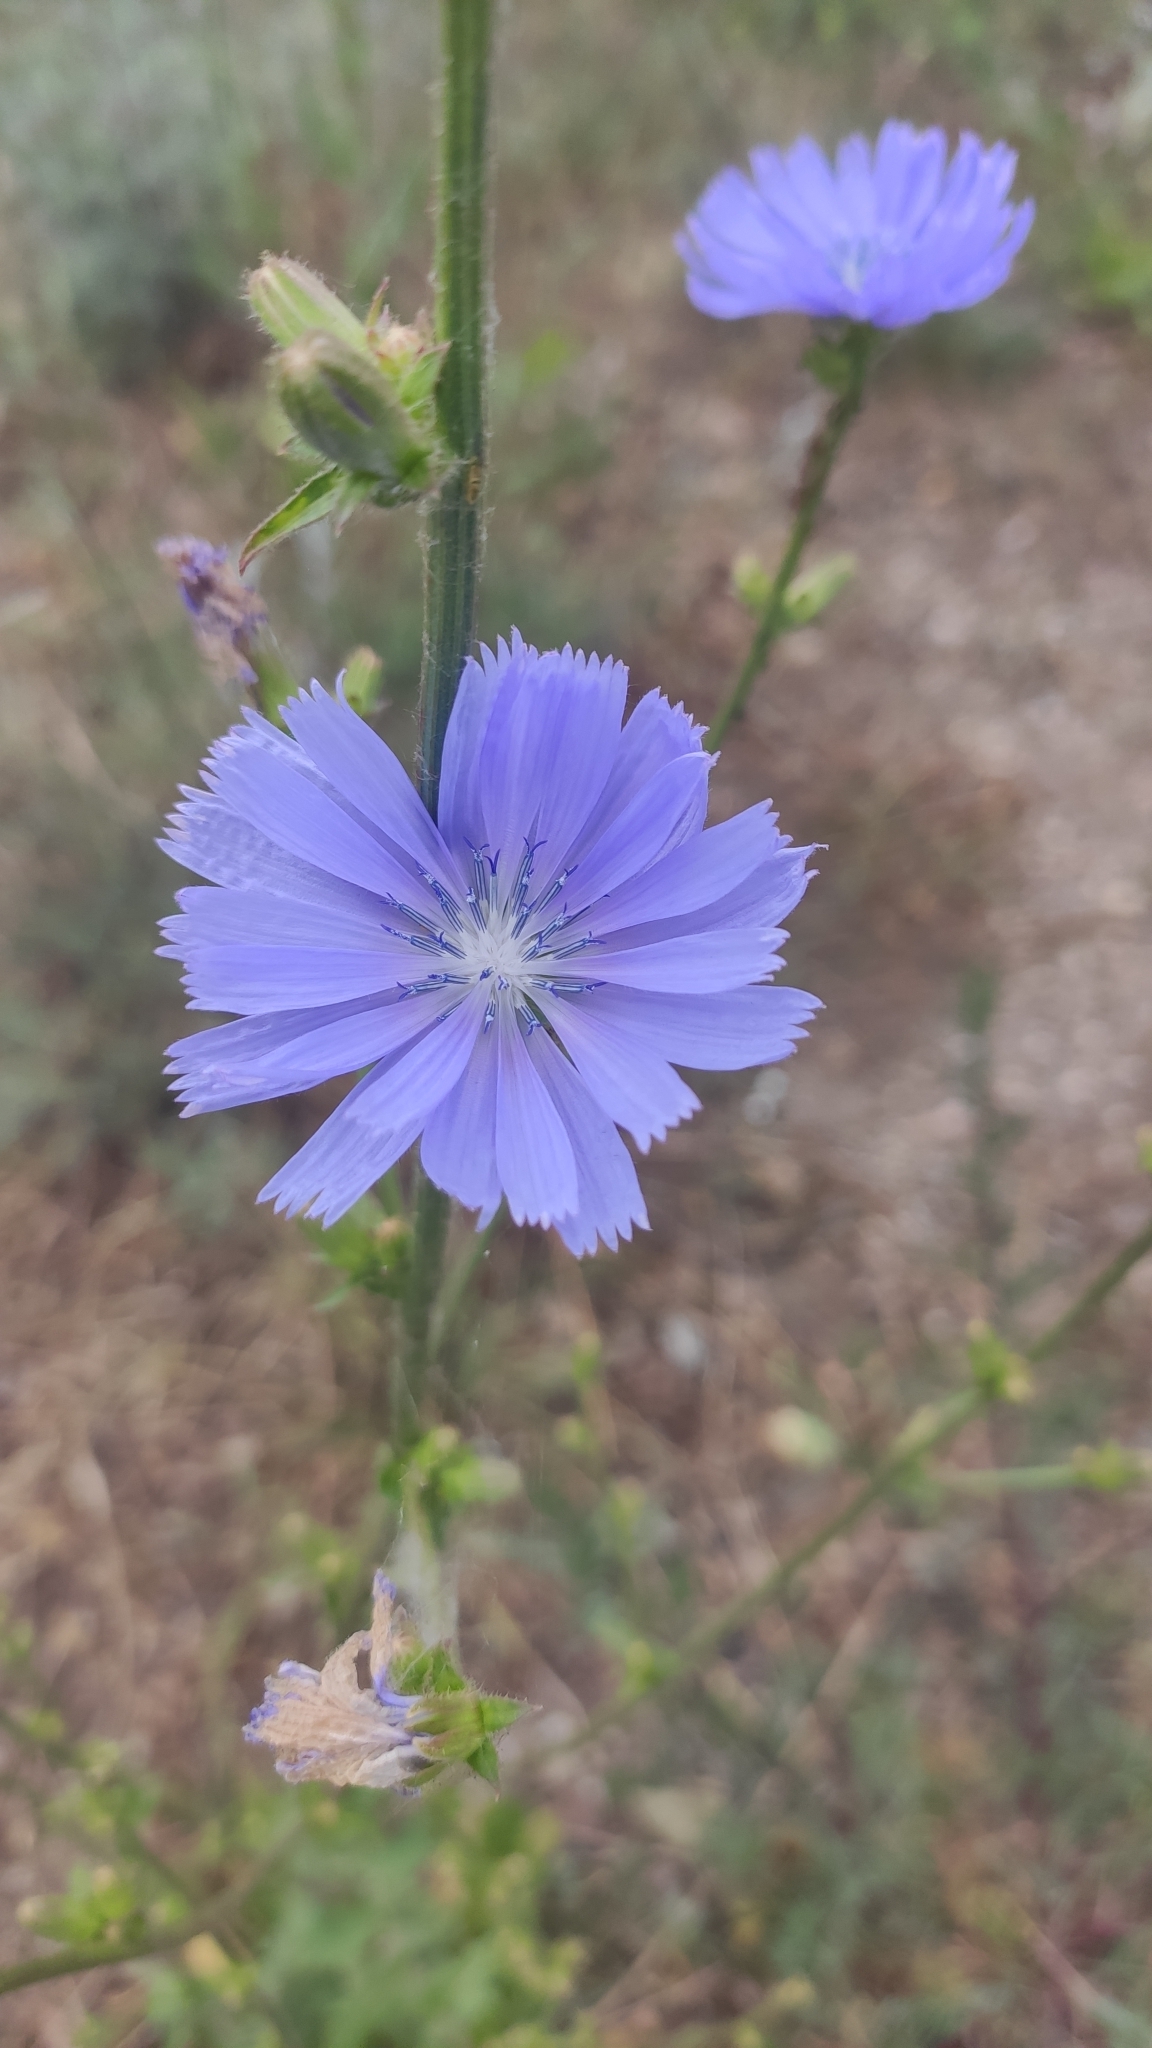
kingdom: Plantae
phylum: Tracheophyta
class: Magnoliopsida
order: Asterales
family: Asteraceae
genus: Cichorium
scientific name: Cichorium intybus
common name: Chicory
